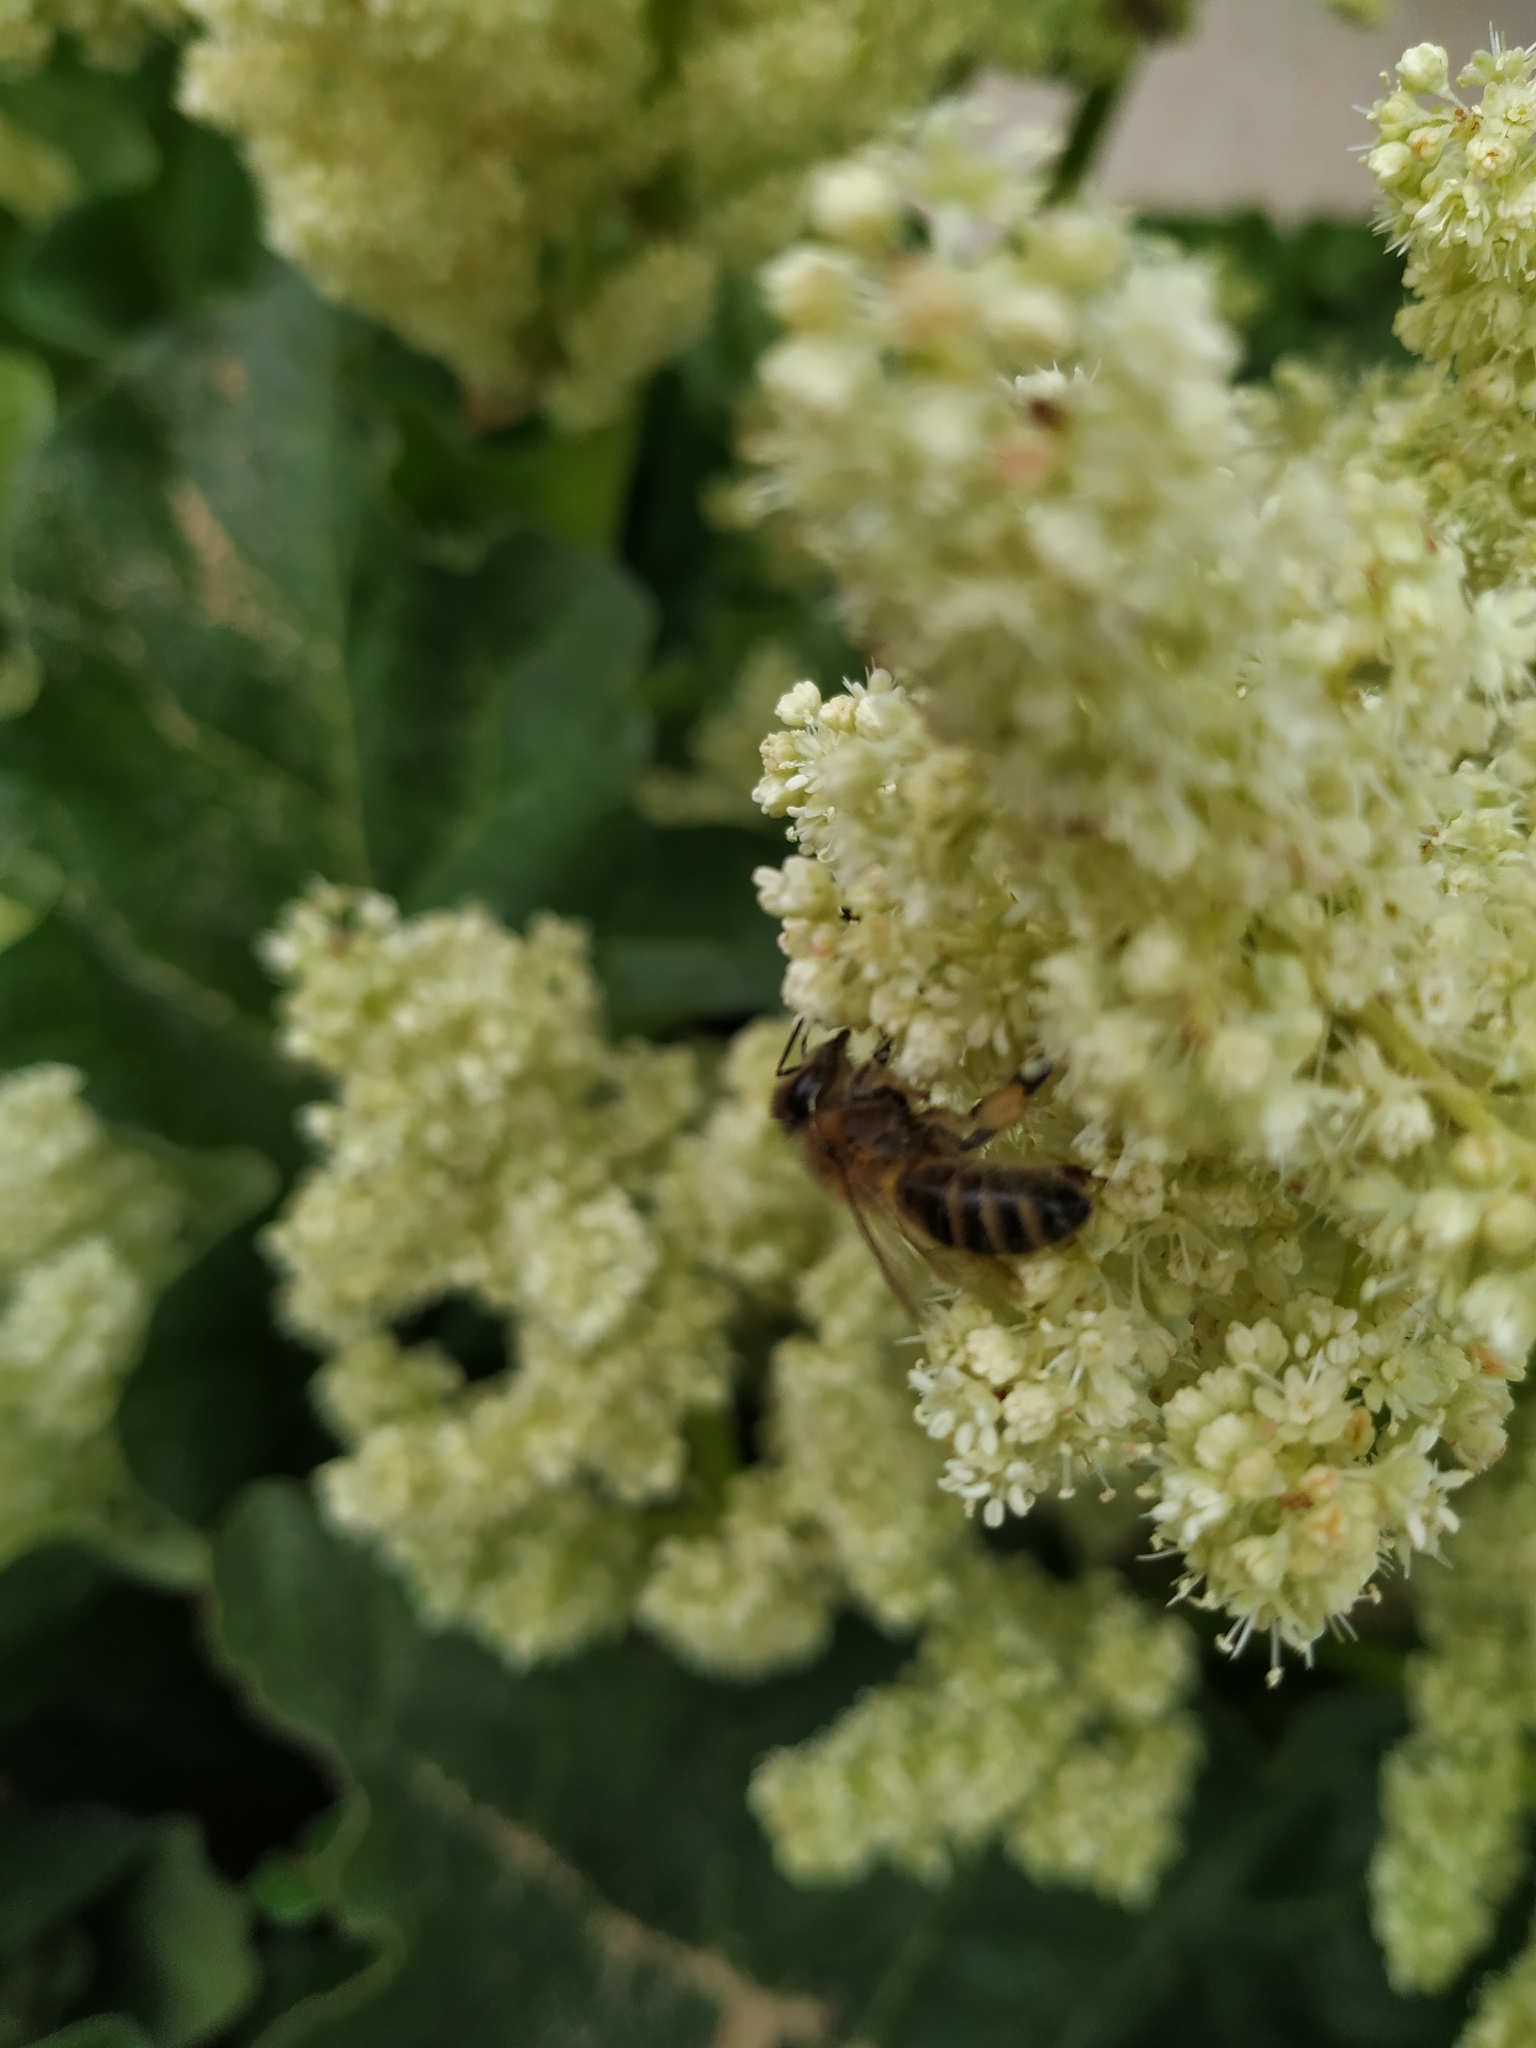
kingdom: Animalia
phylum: Arthropoda
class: Insecta
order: Hymenoptera
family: Apidae
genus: Apis
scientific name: Apis mellifera
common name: Honey bee
